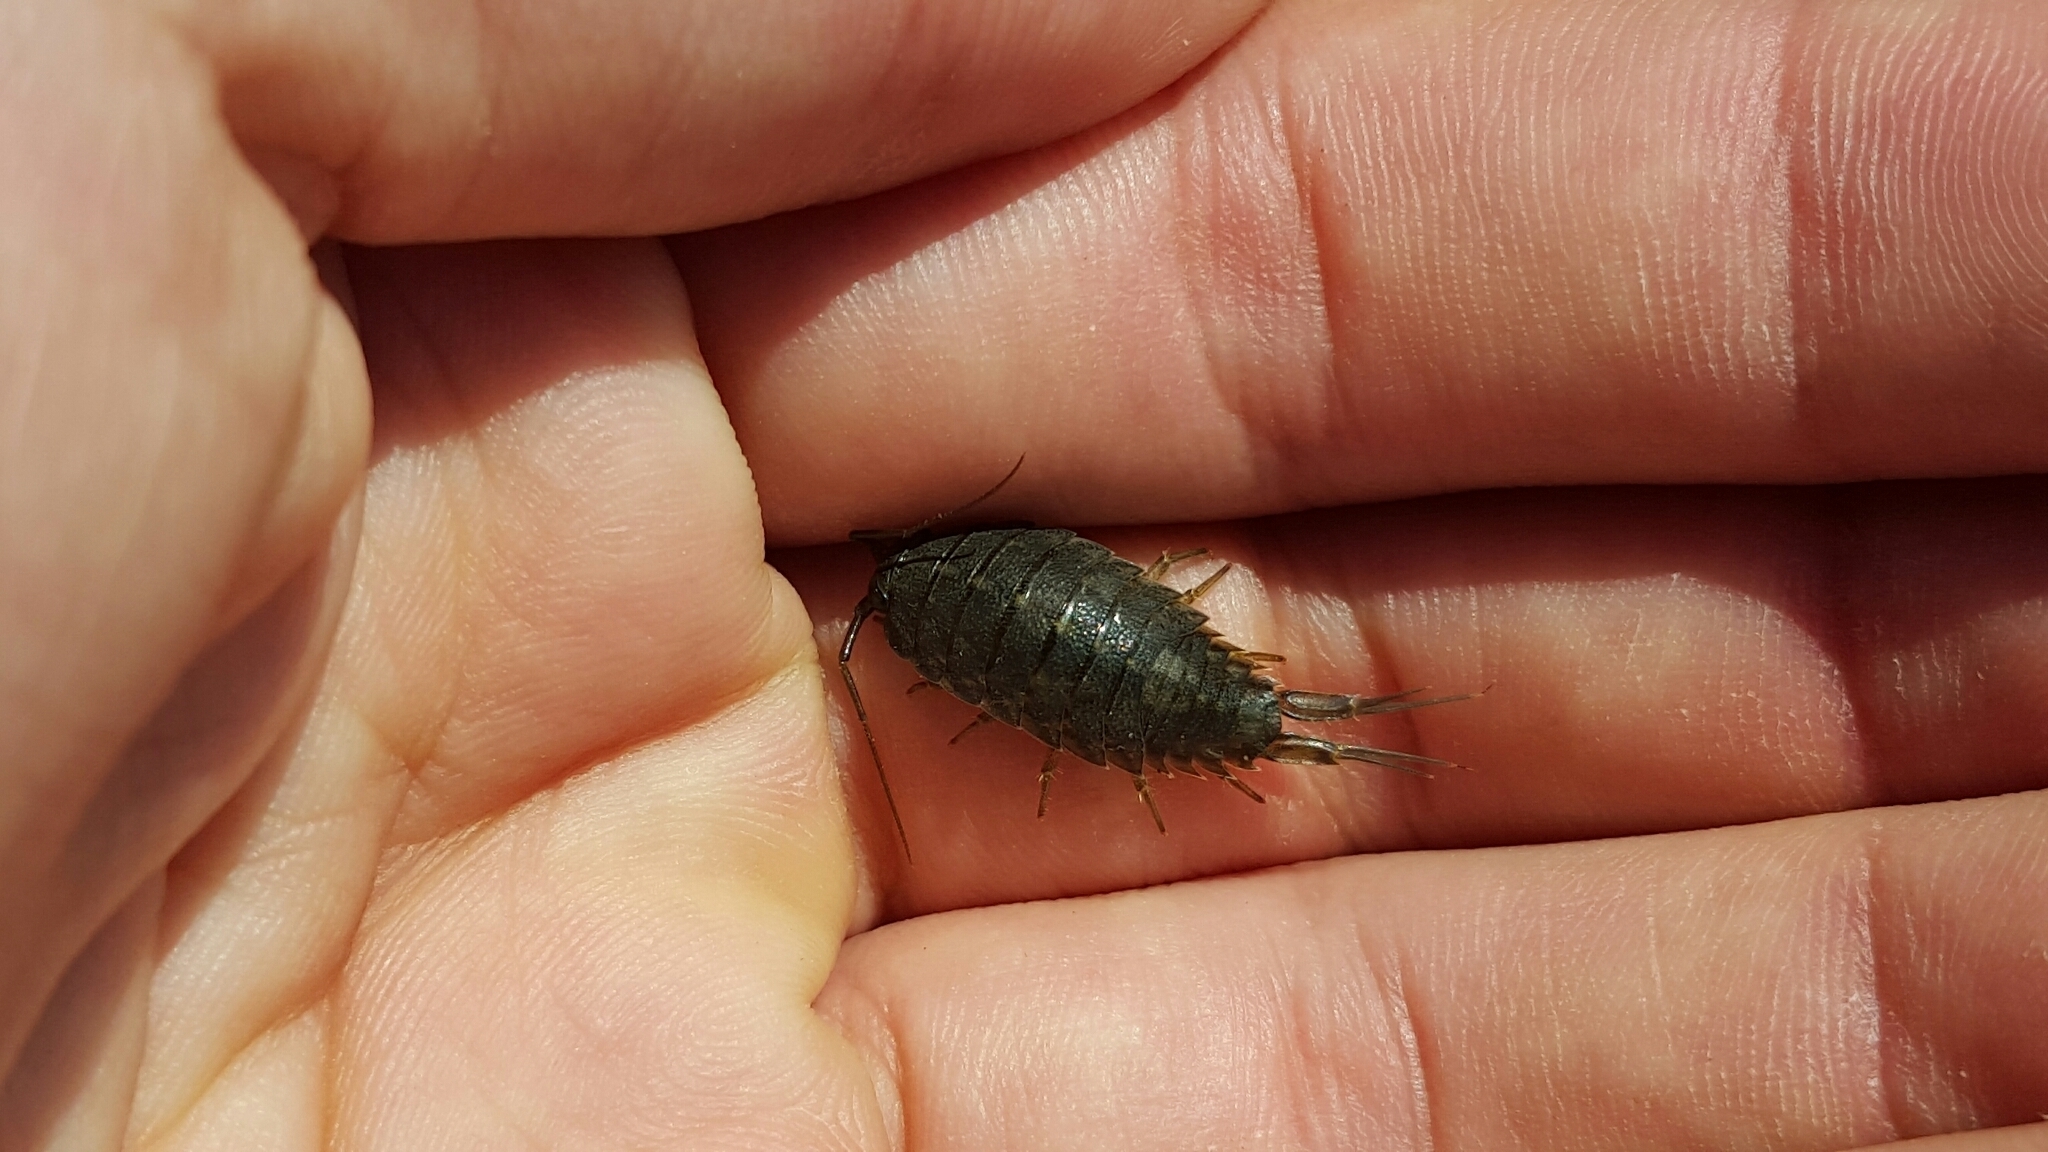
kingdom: Animalia
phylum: Arthropoda
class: Malacostraca
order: Isopoda
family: Ligiidae
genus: Ligia
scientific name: Ligia occidentalis
